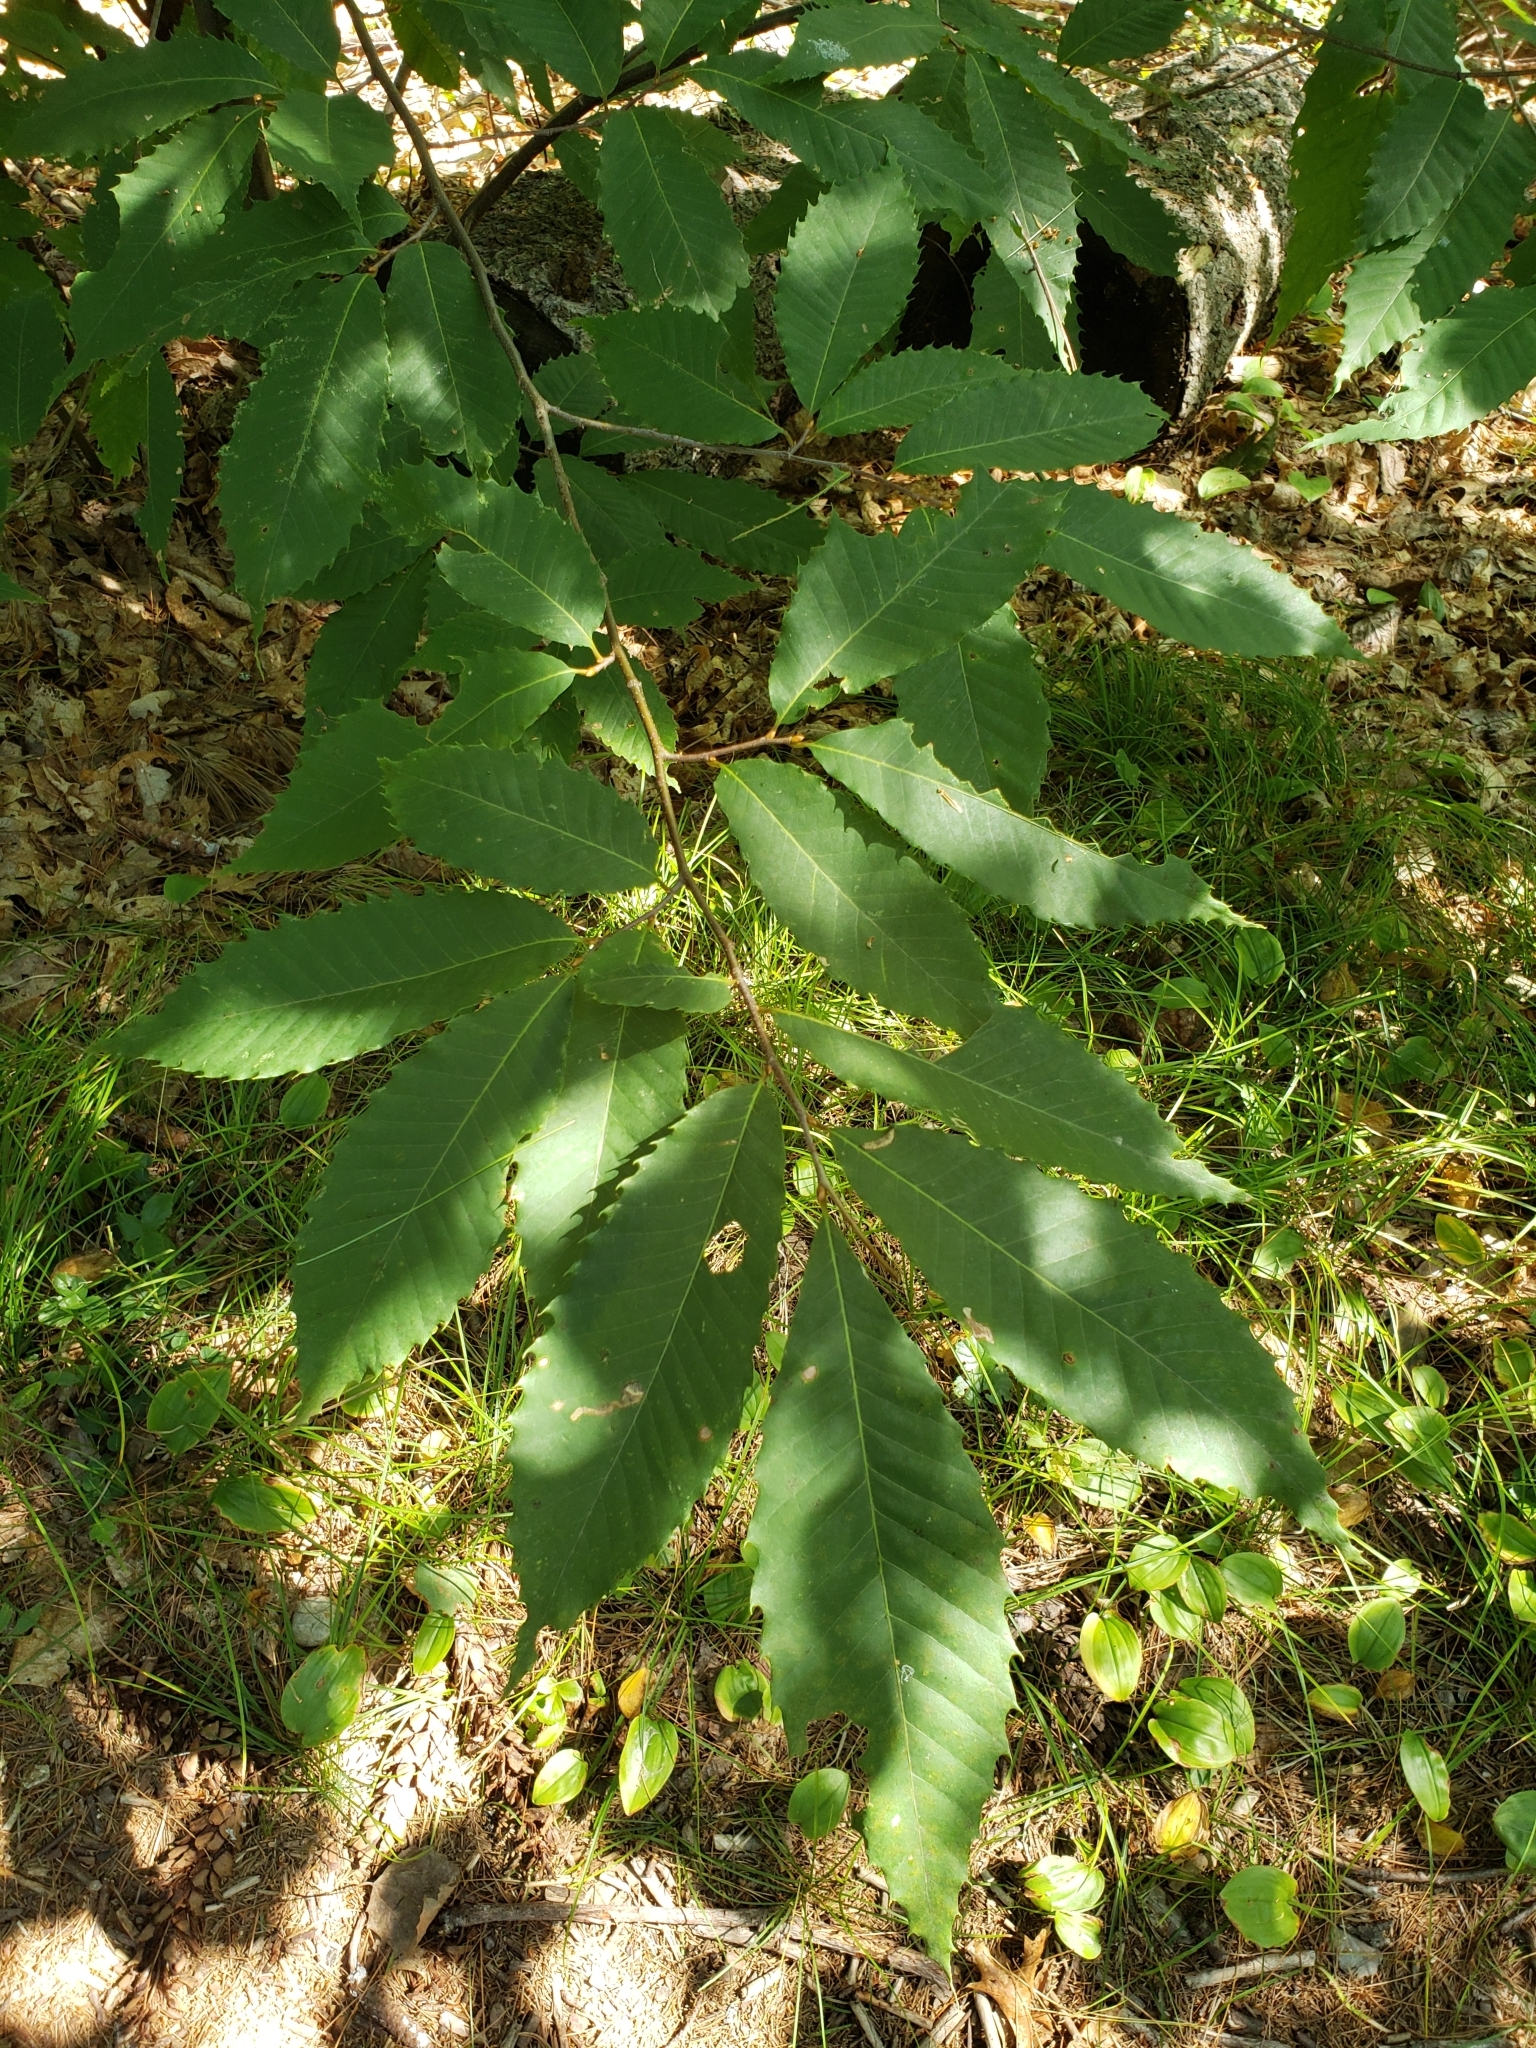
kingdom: Plantae
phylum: Tracheophyta
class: Magnoliopsida
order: Fagales
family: Fagaceae
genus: Castanea
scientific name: Castanea dentata
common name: American chestnut
